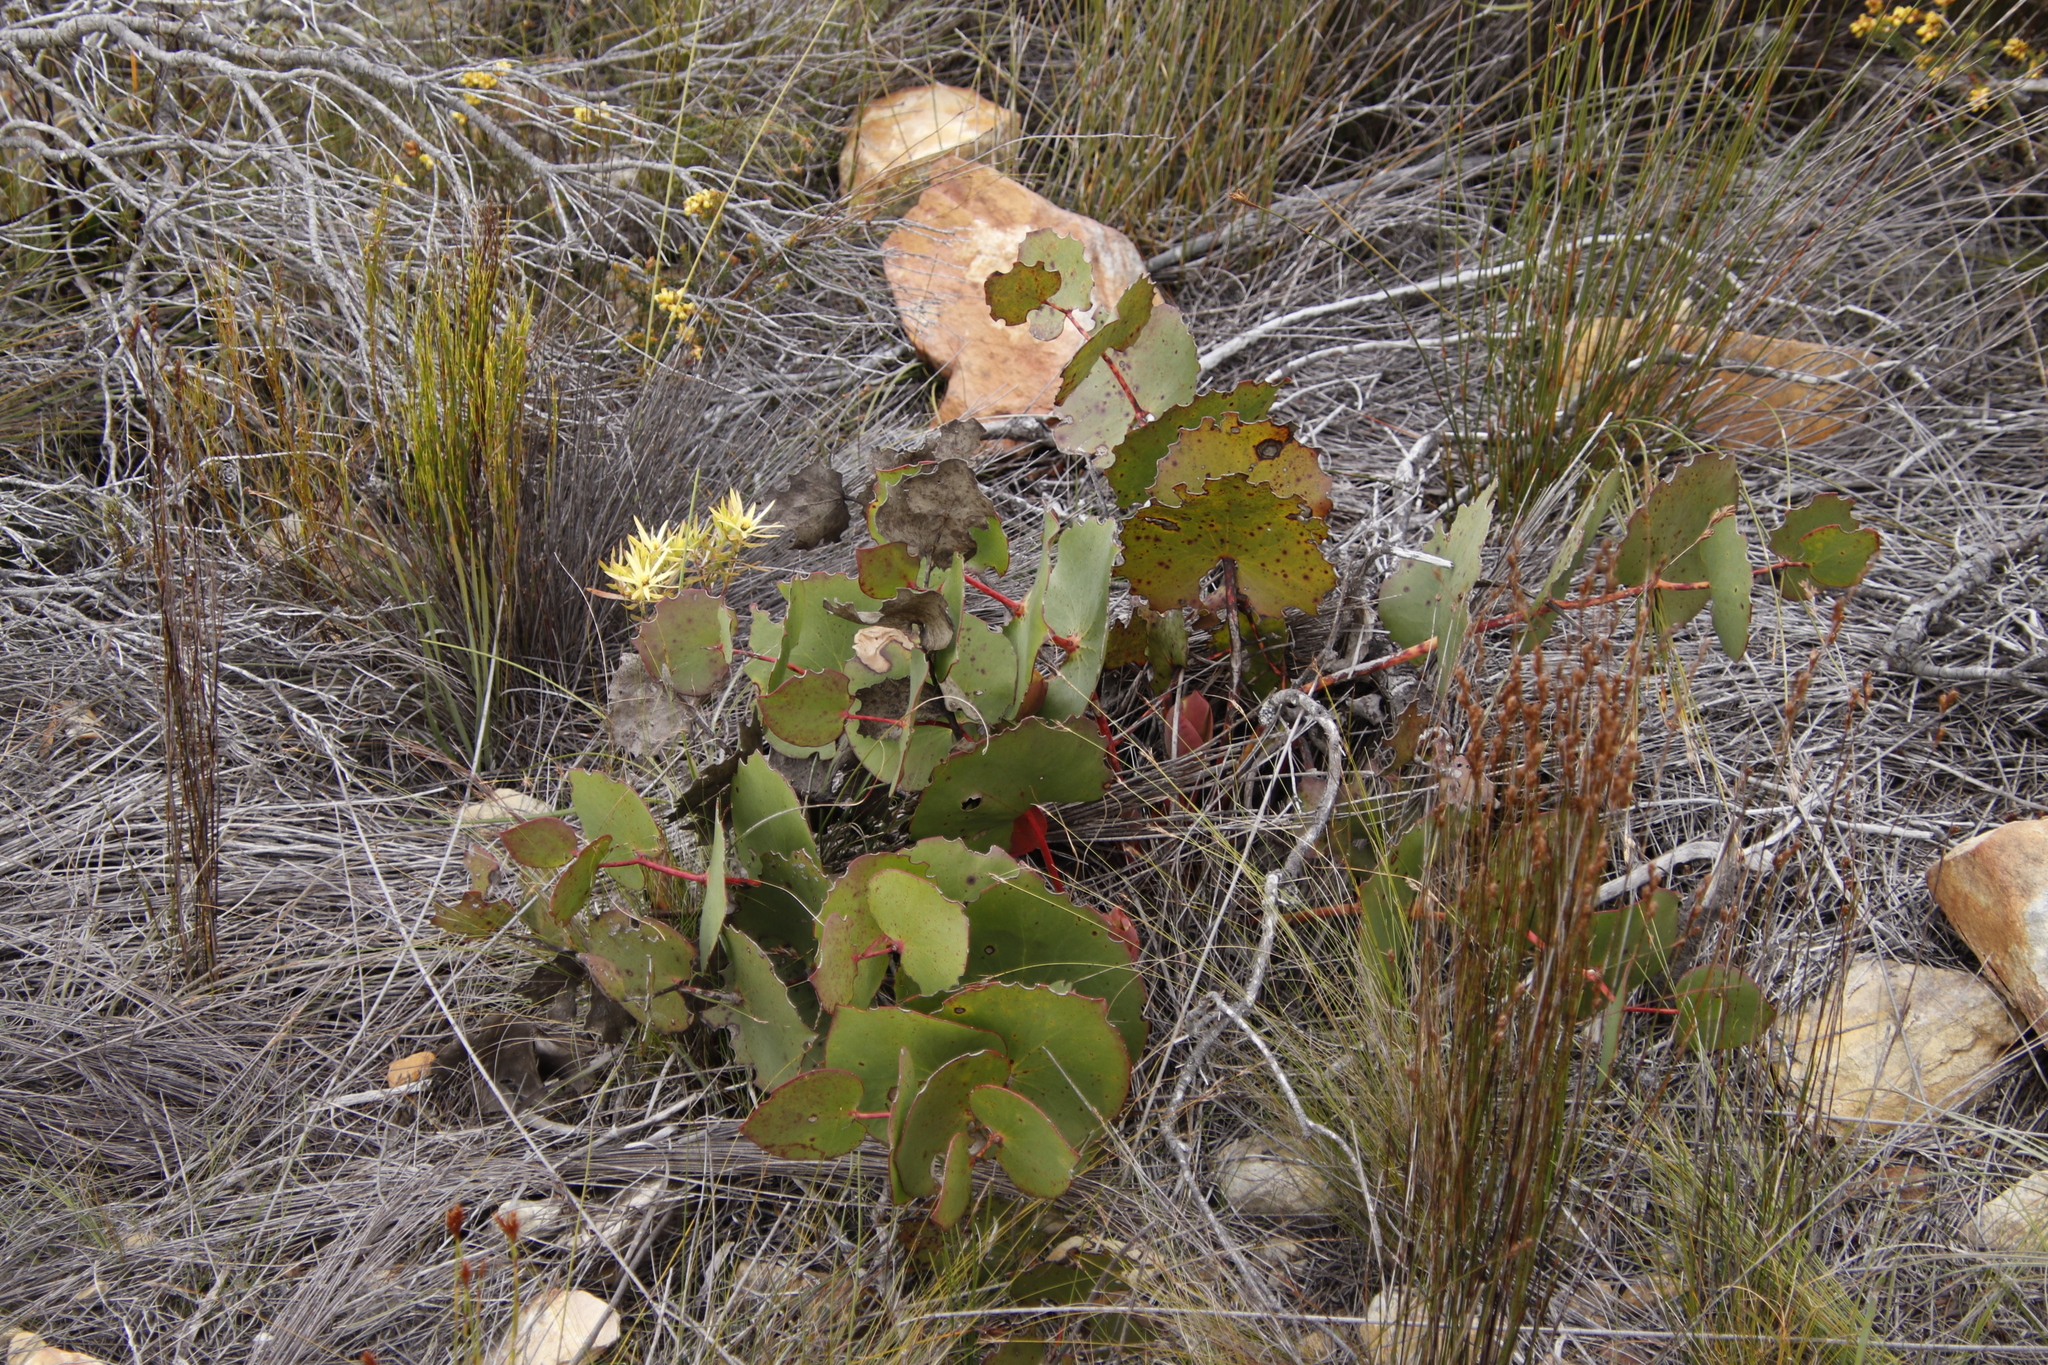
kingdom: Plantae
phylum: Tracheophyta
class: Magnoliopsida
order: Proteales
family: Proteaceae
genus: Protea
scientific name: Protea cordata
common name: Heart-leaf sugarbush
